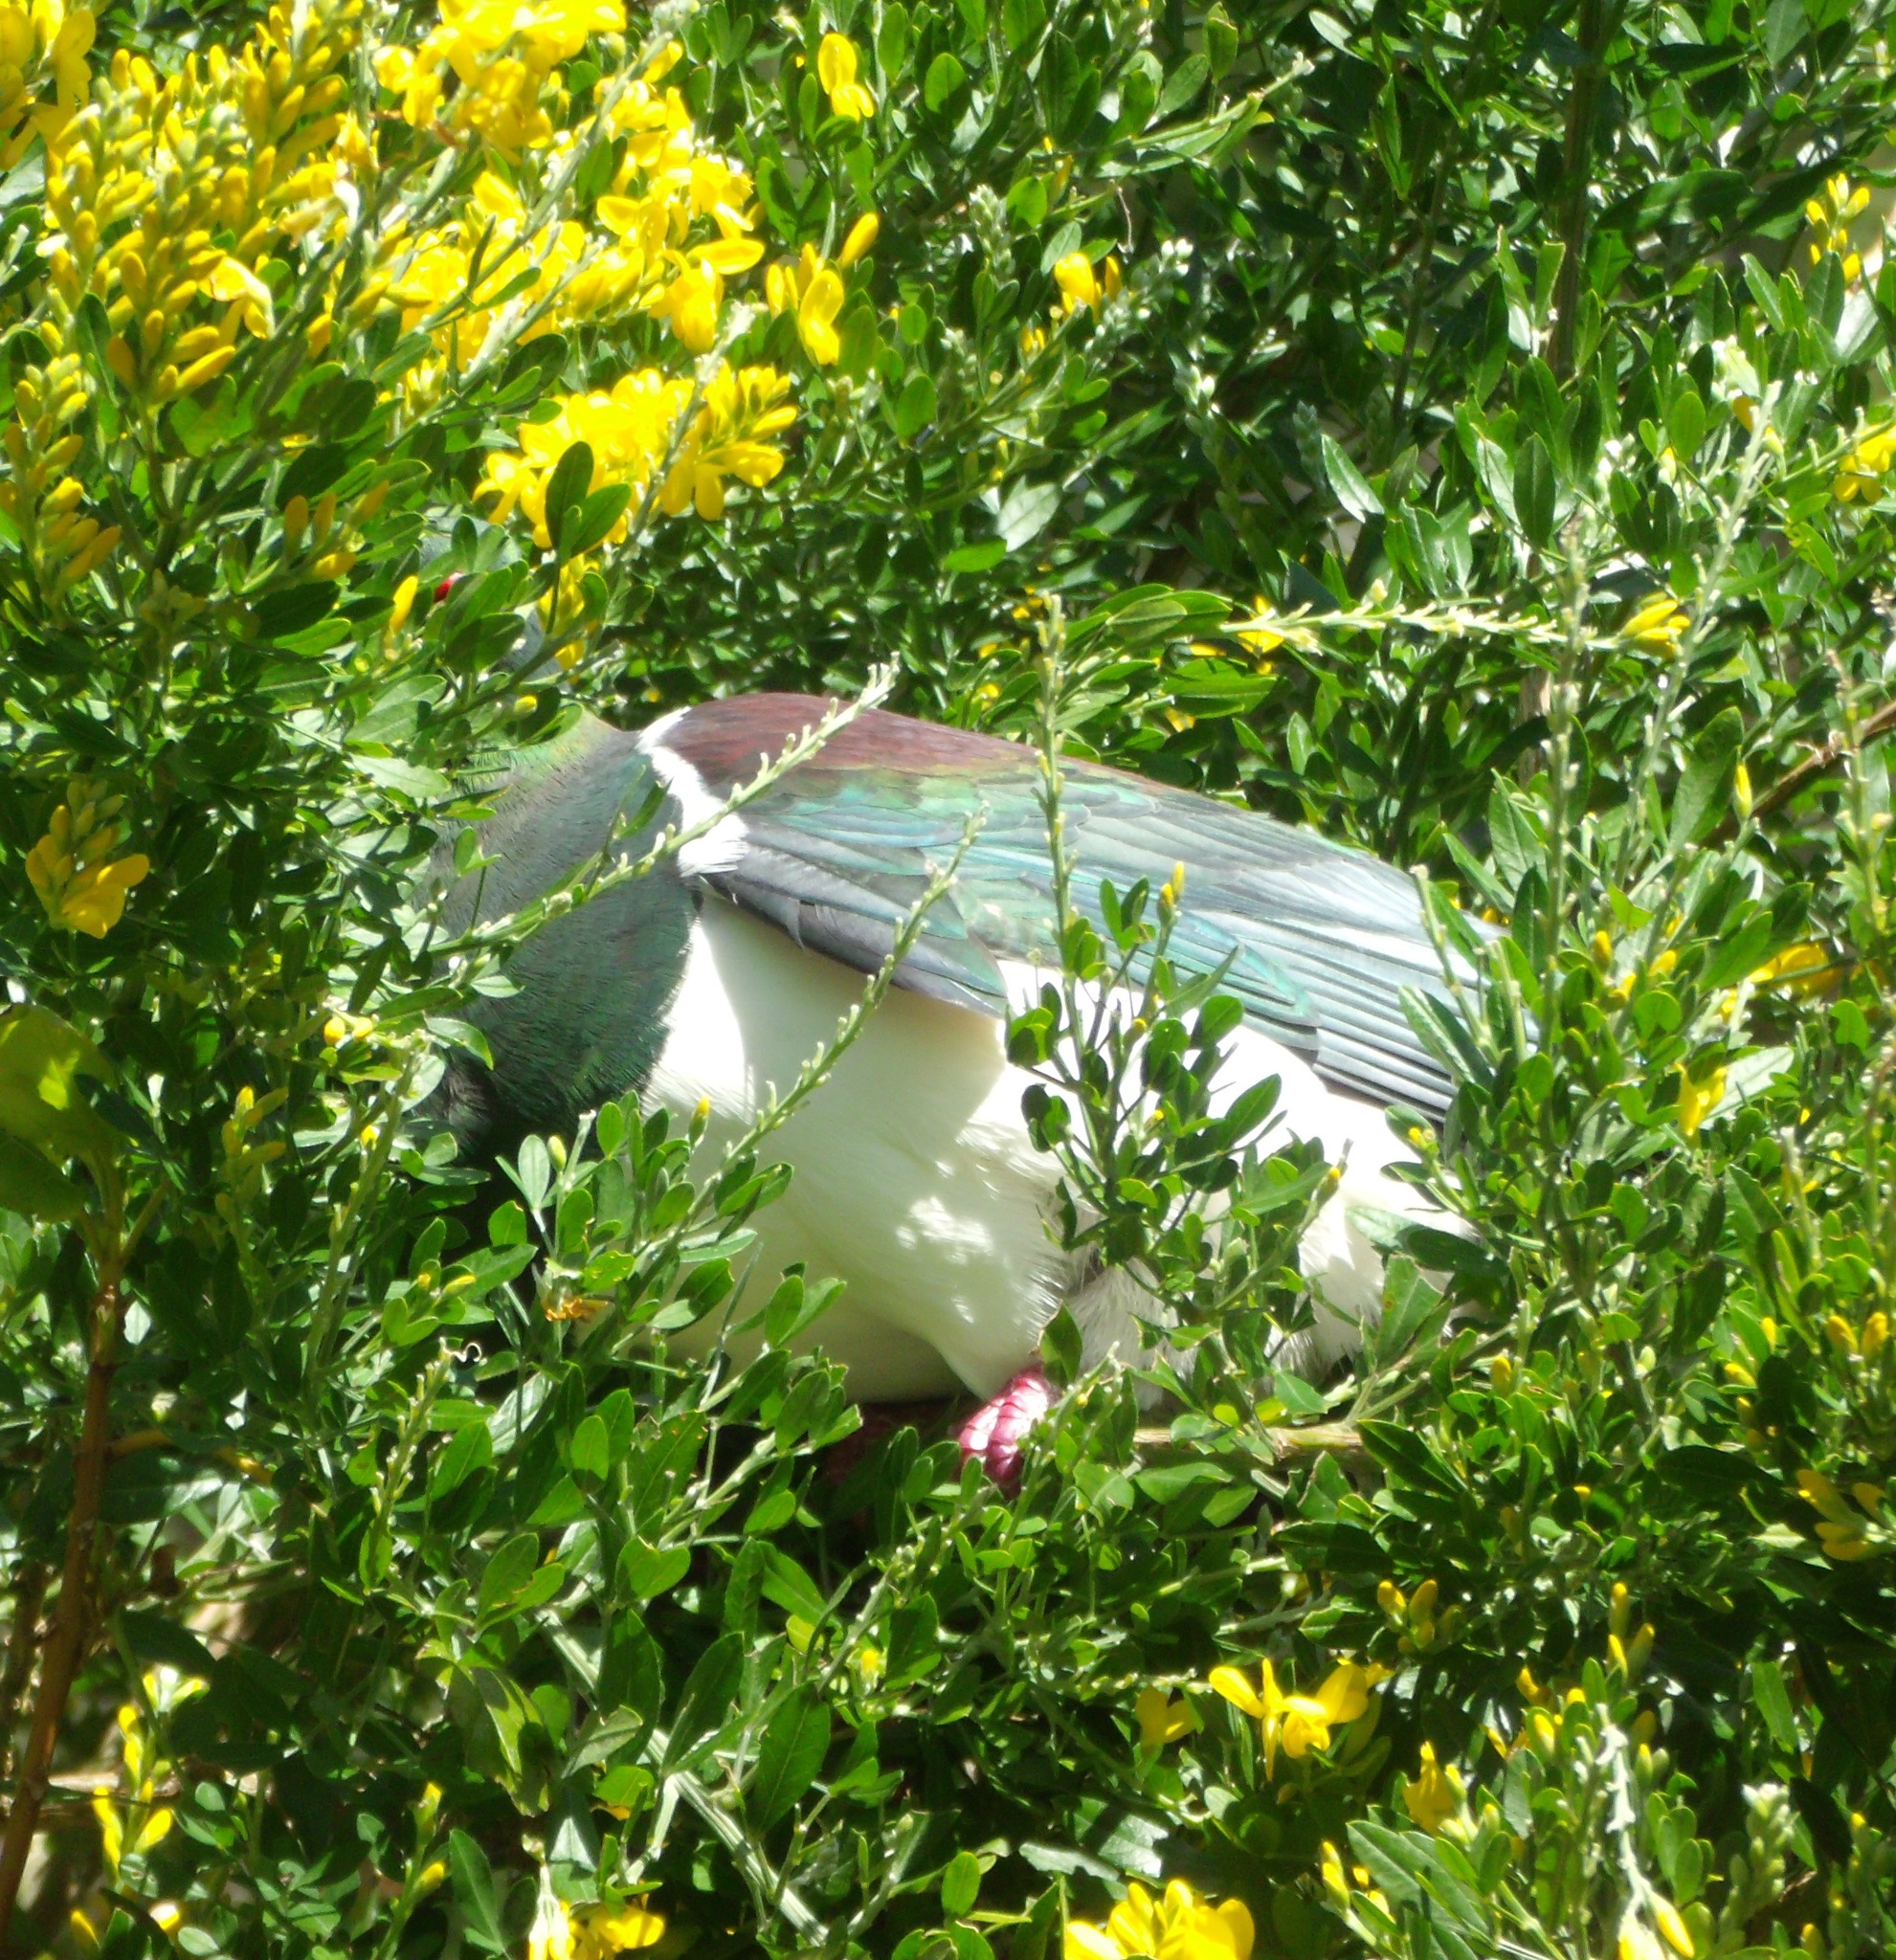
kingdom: Plantae
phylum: Tracheophyta
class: Magnoliopsida
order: Fabales
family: Fabaceae
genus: Genista
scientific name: Genista stenopetala
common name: Leafy broom
